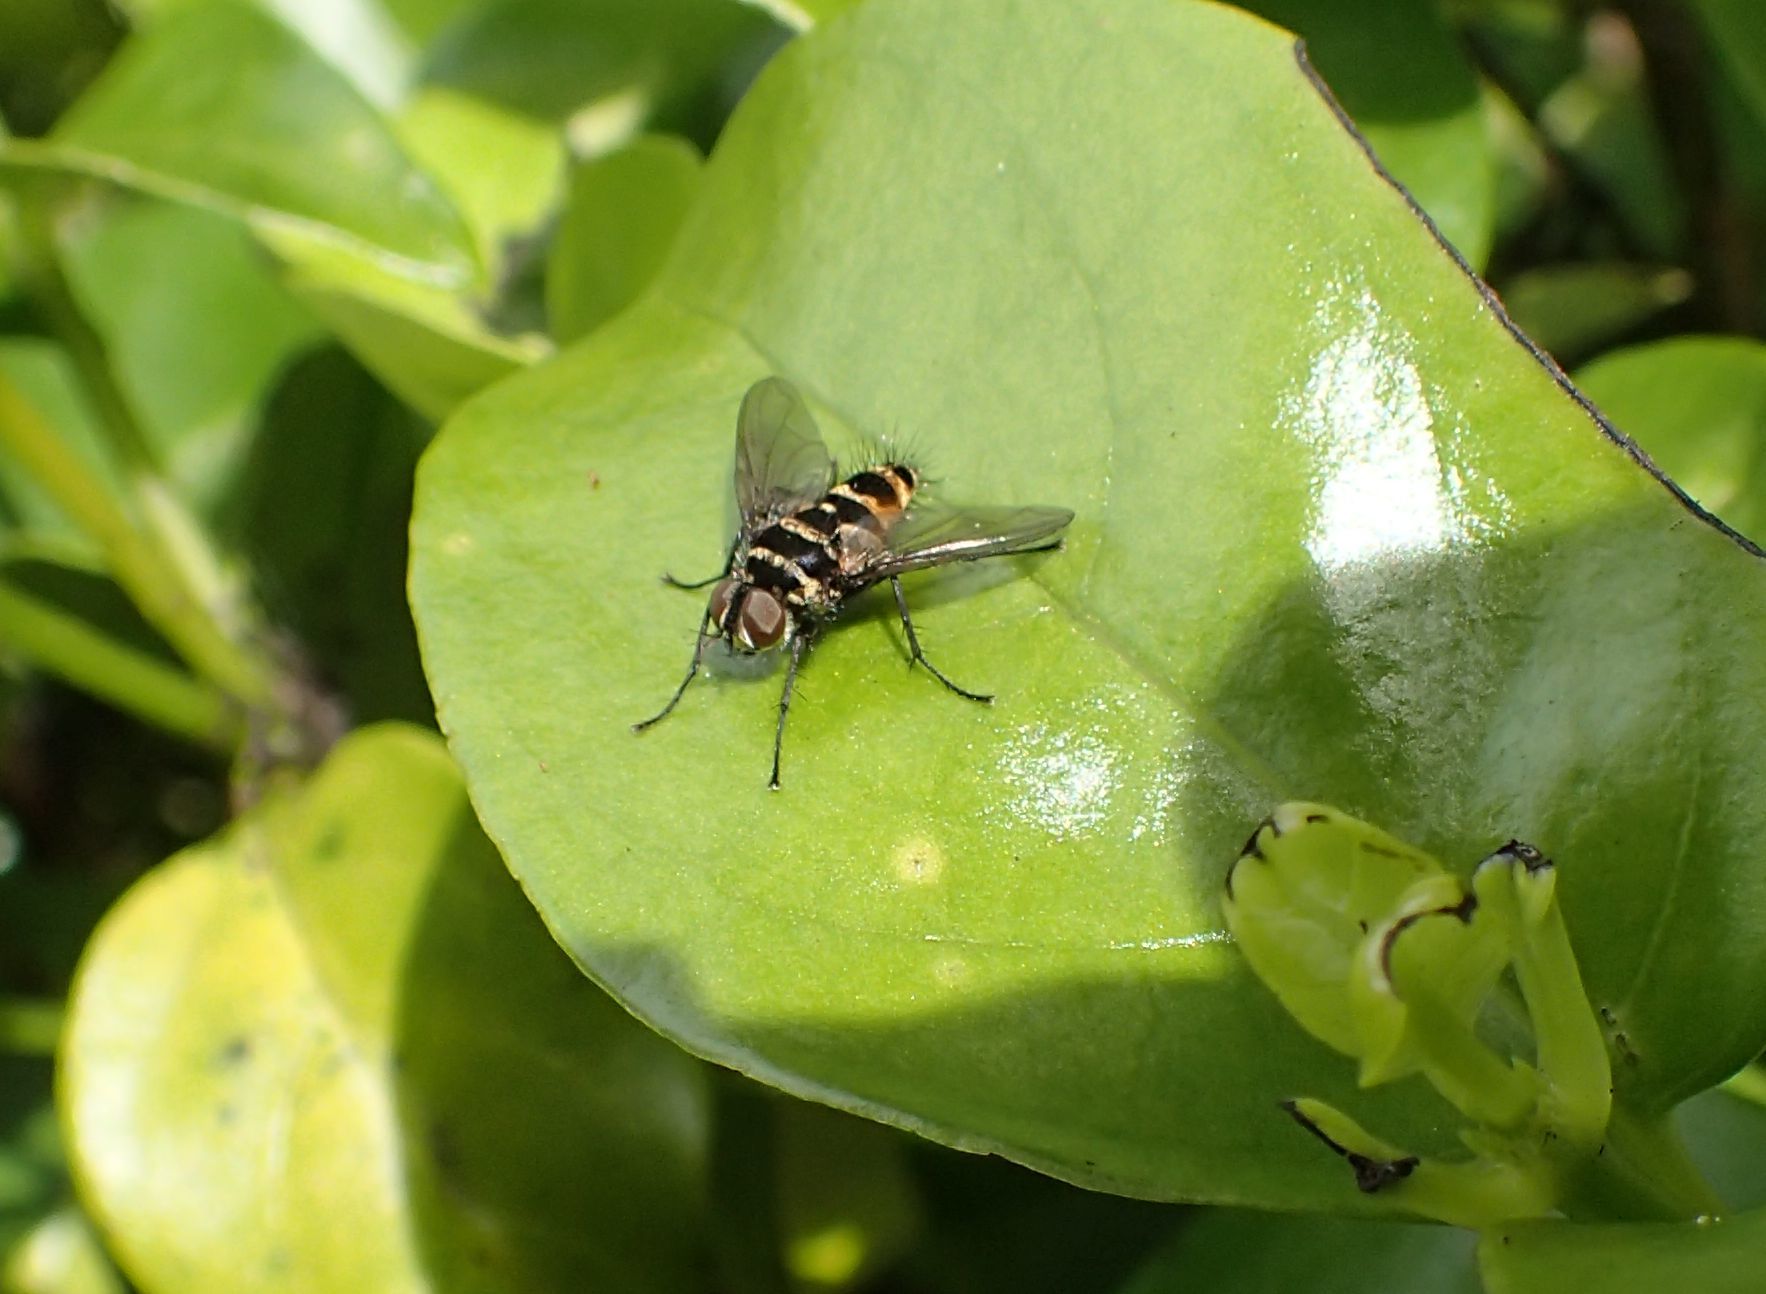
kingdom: Animalia
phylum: Arthropoda
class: Insecta
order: Diptera
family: Tachinidae
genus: Trigonospila
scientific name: Trigonospila brevifacies
